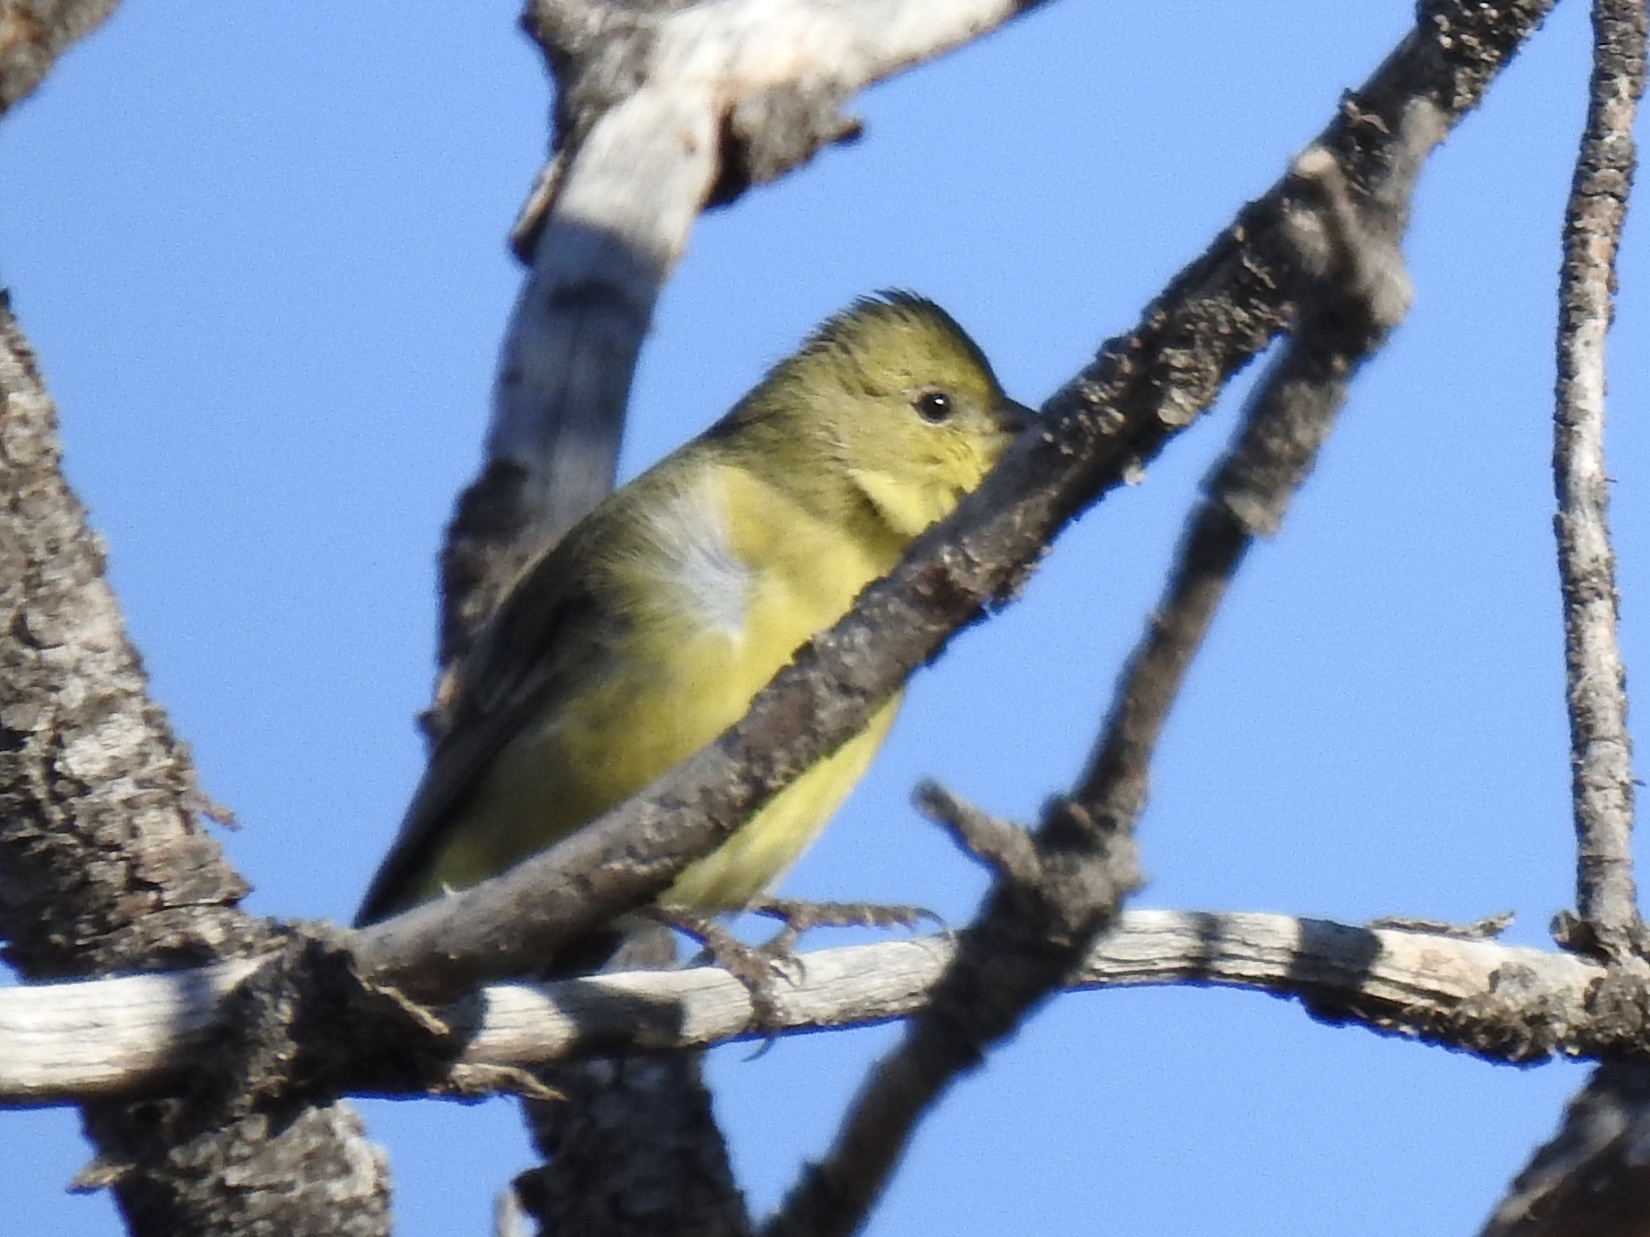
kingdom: Animalia
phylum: Chordata
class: Aves
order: Passeriformes
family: Fringillidae
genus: Spinus
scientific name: Spinus psaltria
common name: Lesser goldfinch
